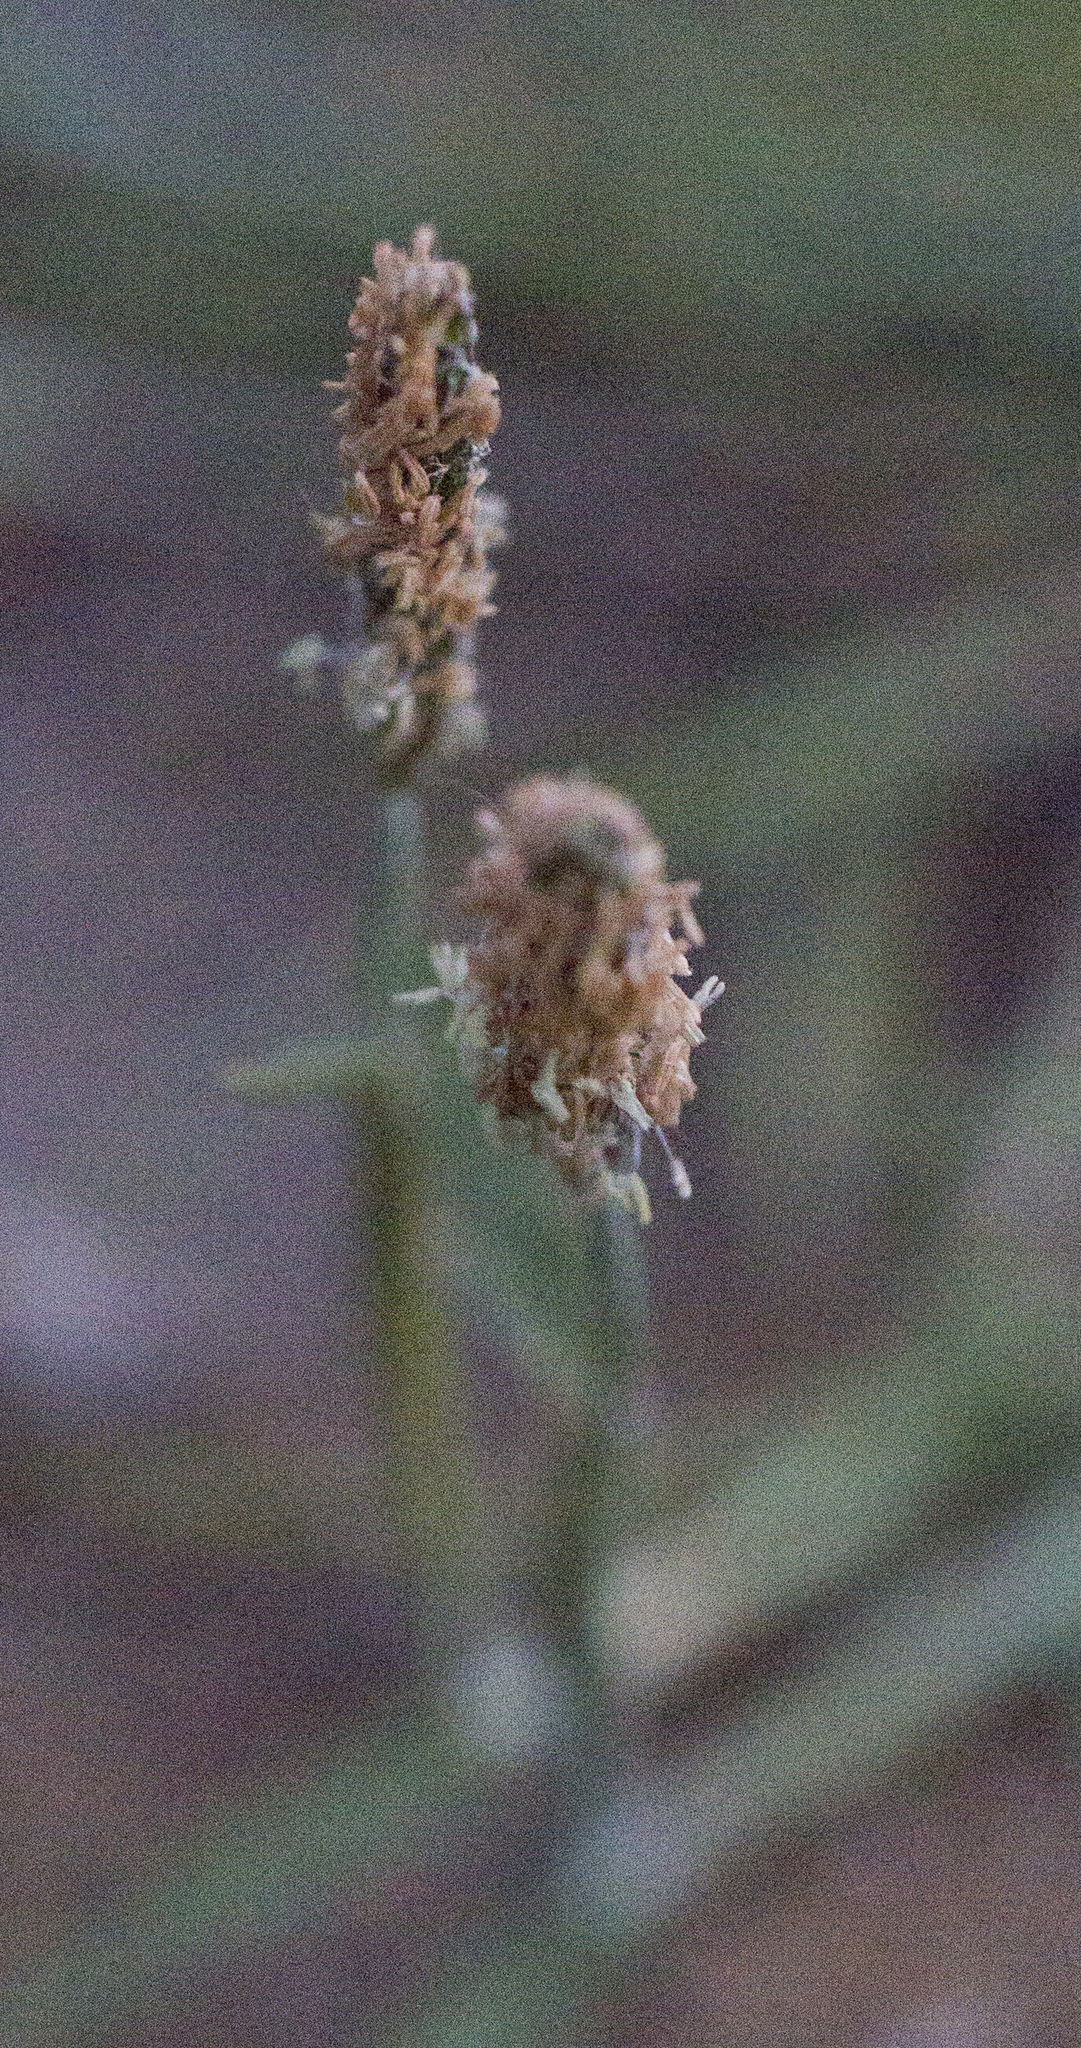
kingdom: Plantae
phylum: Tracheophyta
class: Liliopsida
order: Poales
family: Poaceae
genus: Alopecurus
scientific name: Alopecurus aequalis
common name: Orange foxtail
